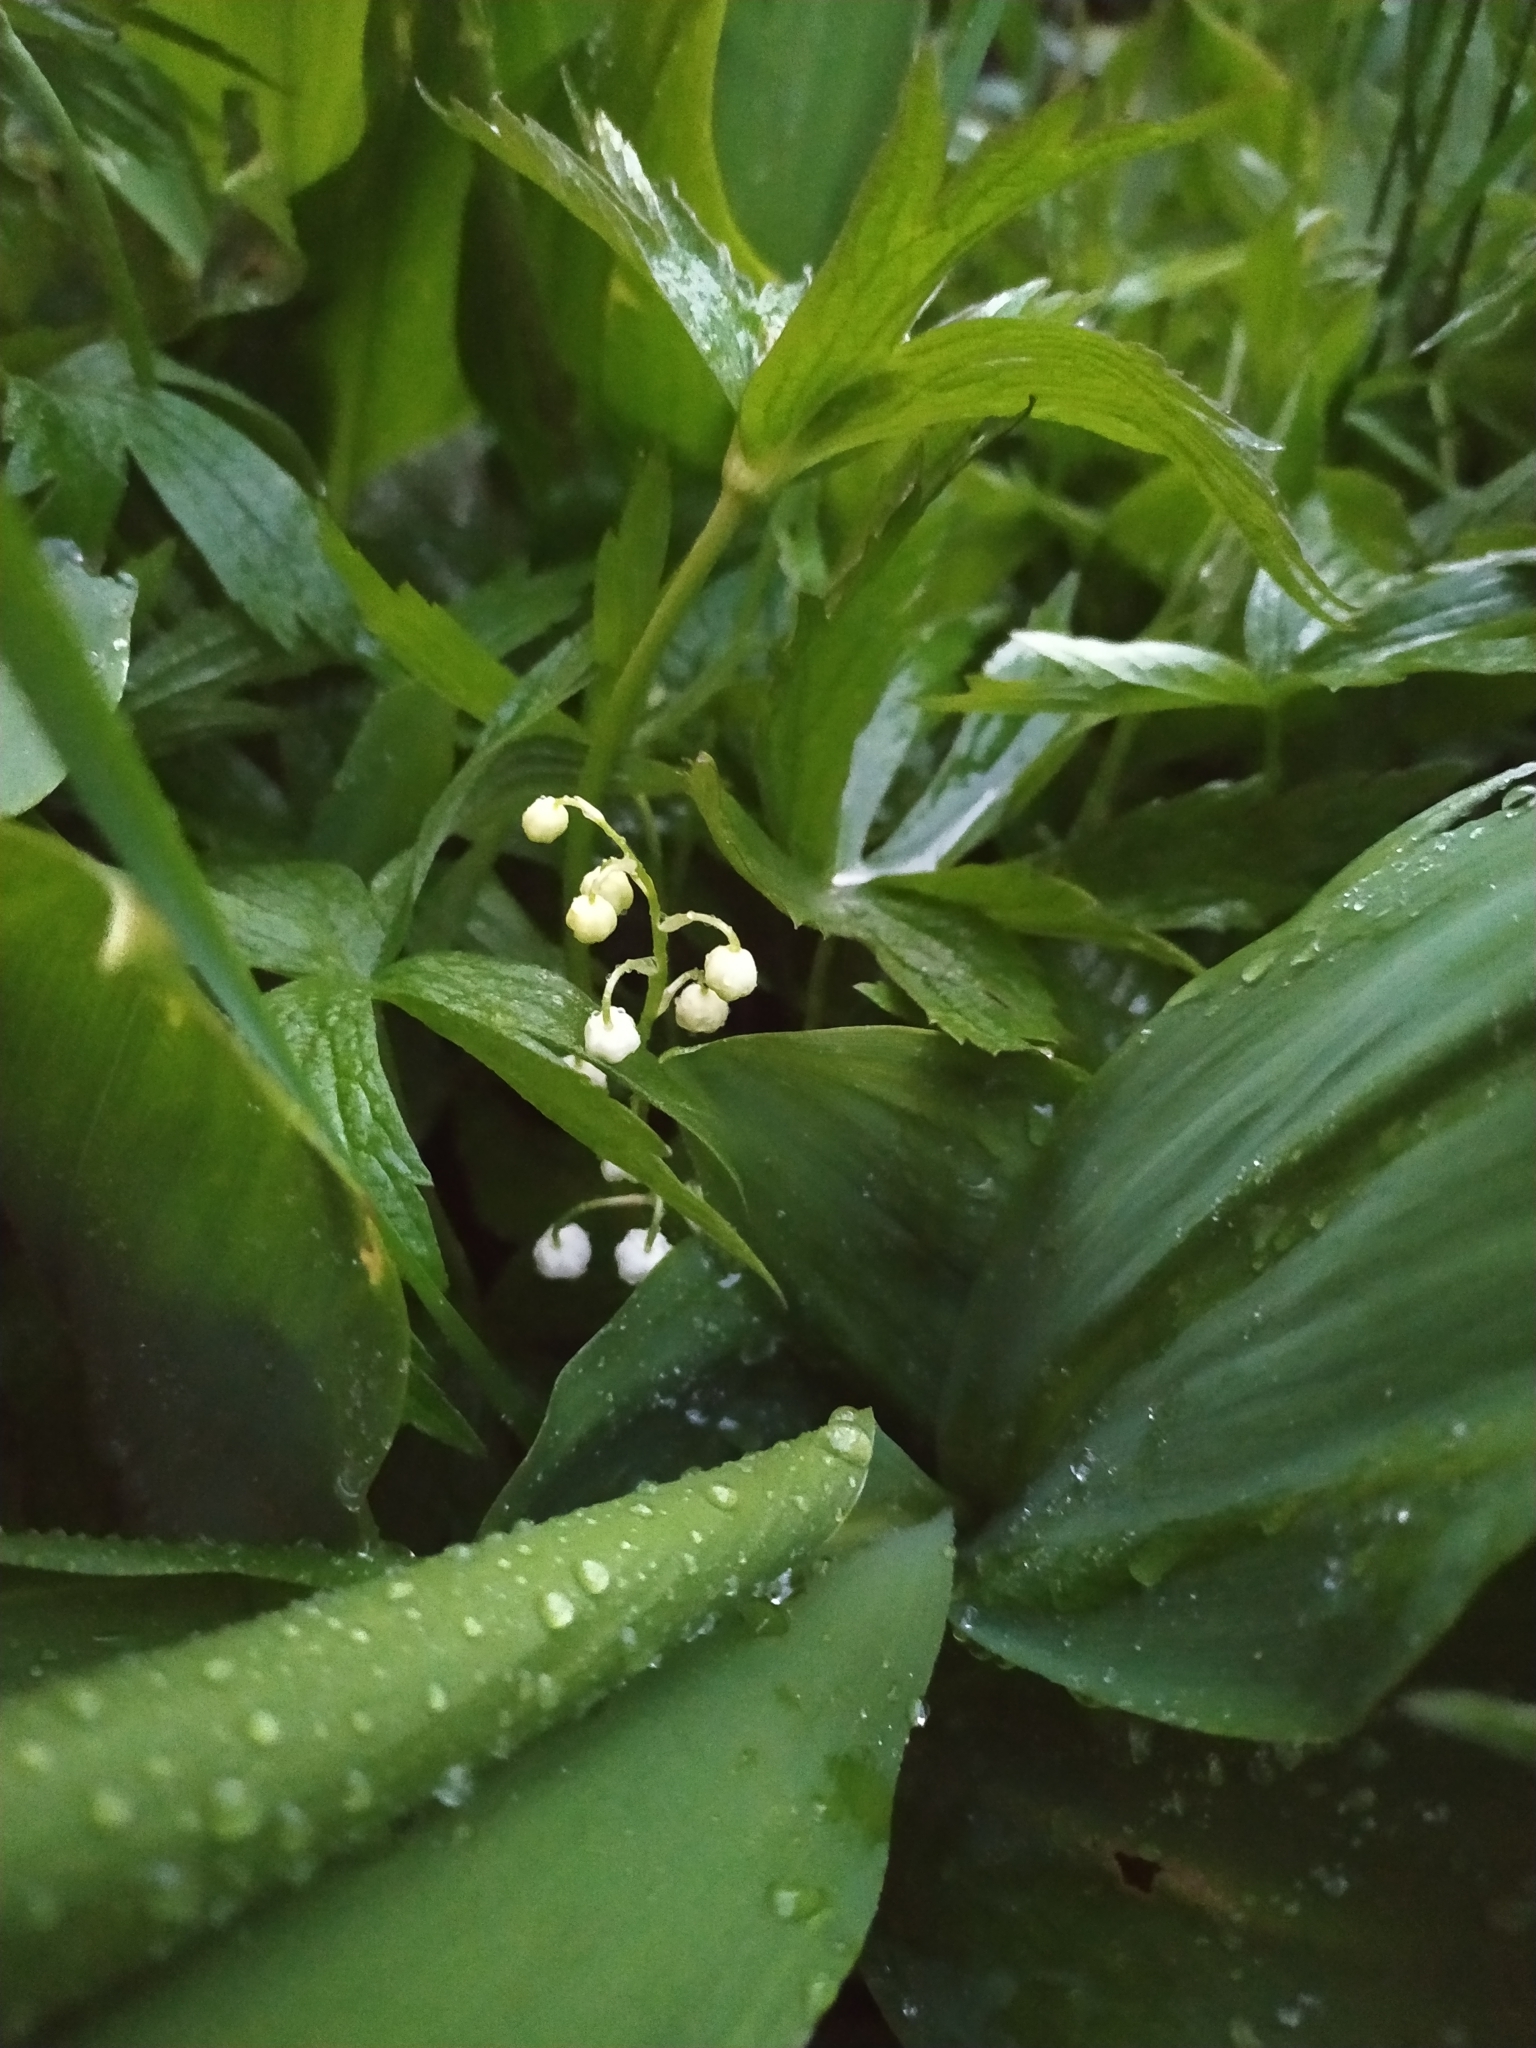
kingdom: Plantae
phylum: Tracheophyta
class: Liliopsida
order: Asparagales
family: Asparagaceae
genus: Convallaria
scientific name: Convallaria majalis
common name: Lily-of-the-valley
